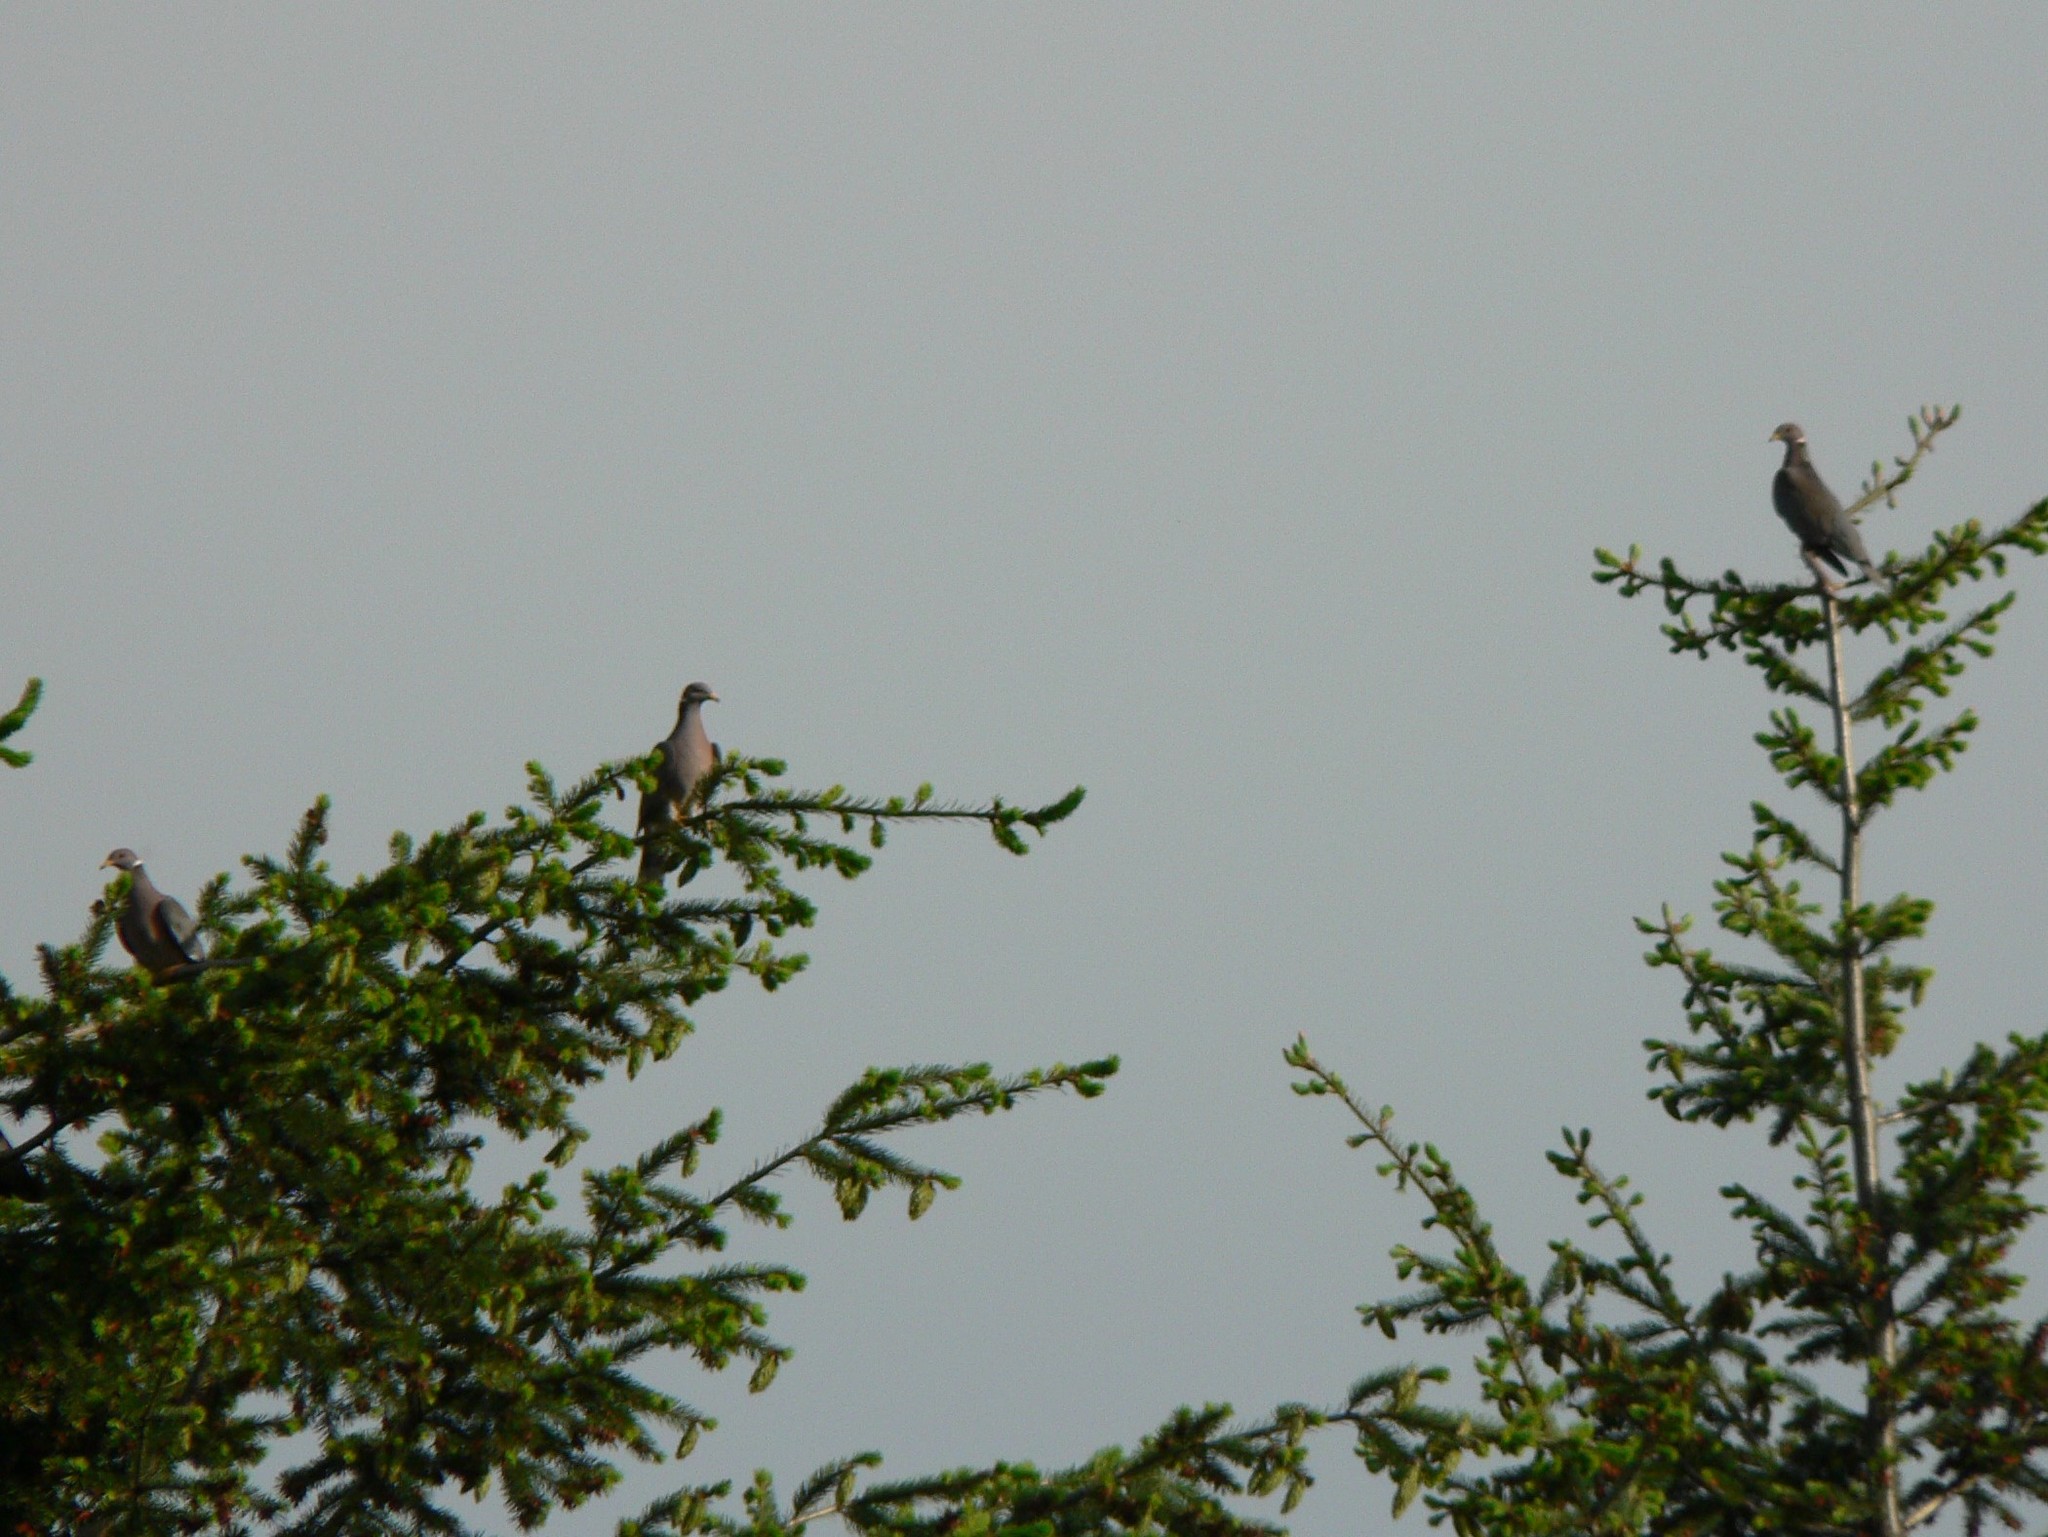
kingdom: Animalia
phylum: Chordata
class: Aves
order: Columbiformes
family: Columbidae
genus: Patagioenas
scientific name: Patagioenas fasciata
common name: Band-tailed pigeon
